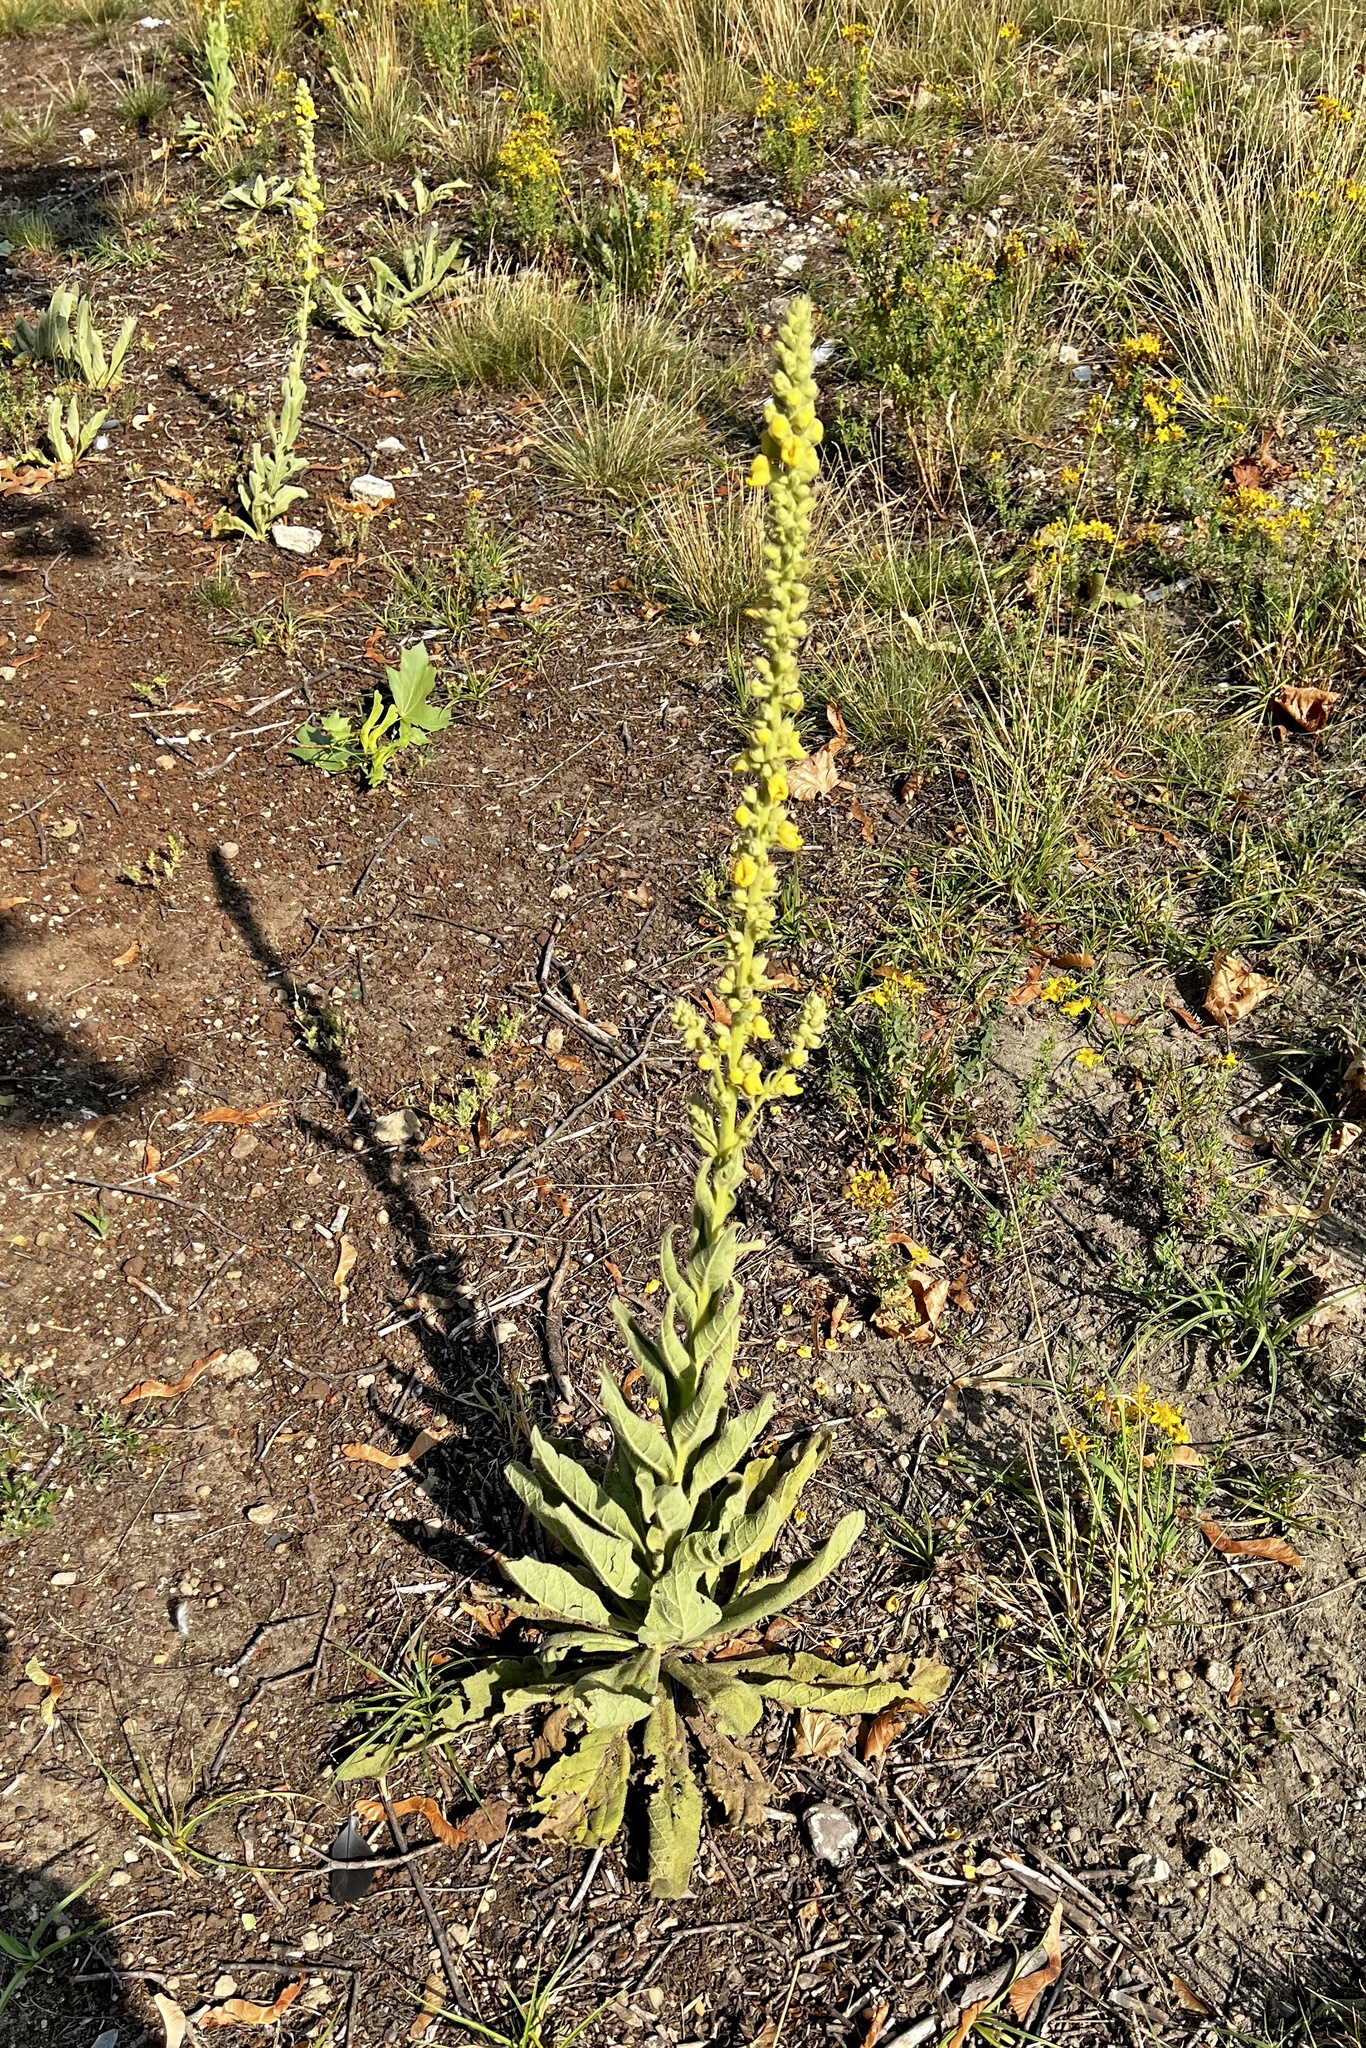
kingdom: Plantae
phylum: Tracheophyta
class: Magnoliopsida
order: Lamiales
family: Scrophulariaceae
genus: Verbascum
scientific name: Verbascum thapsus
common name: Common mullein
